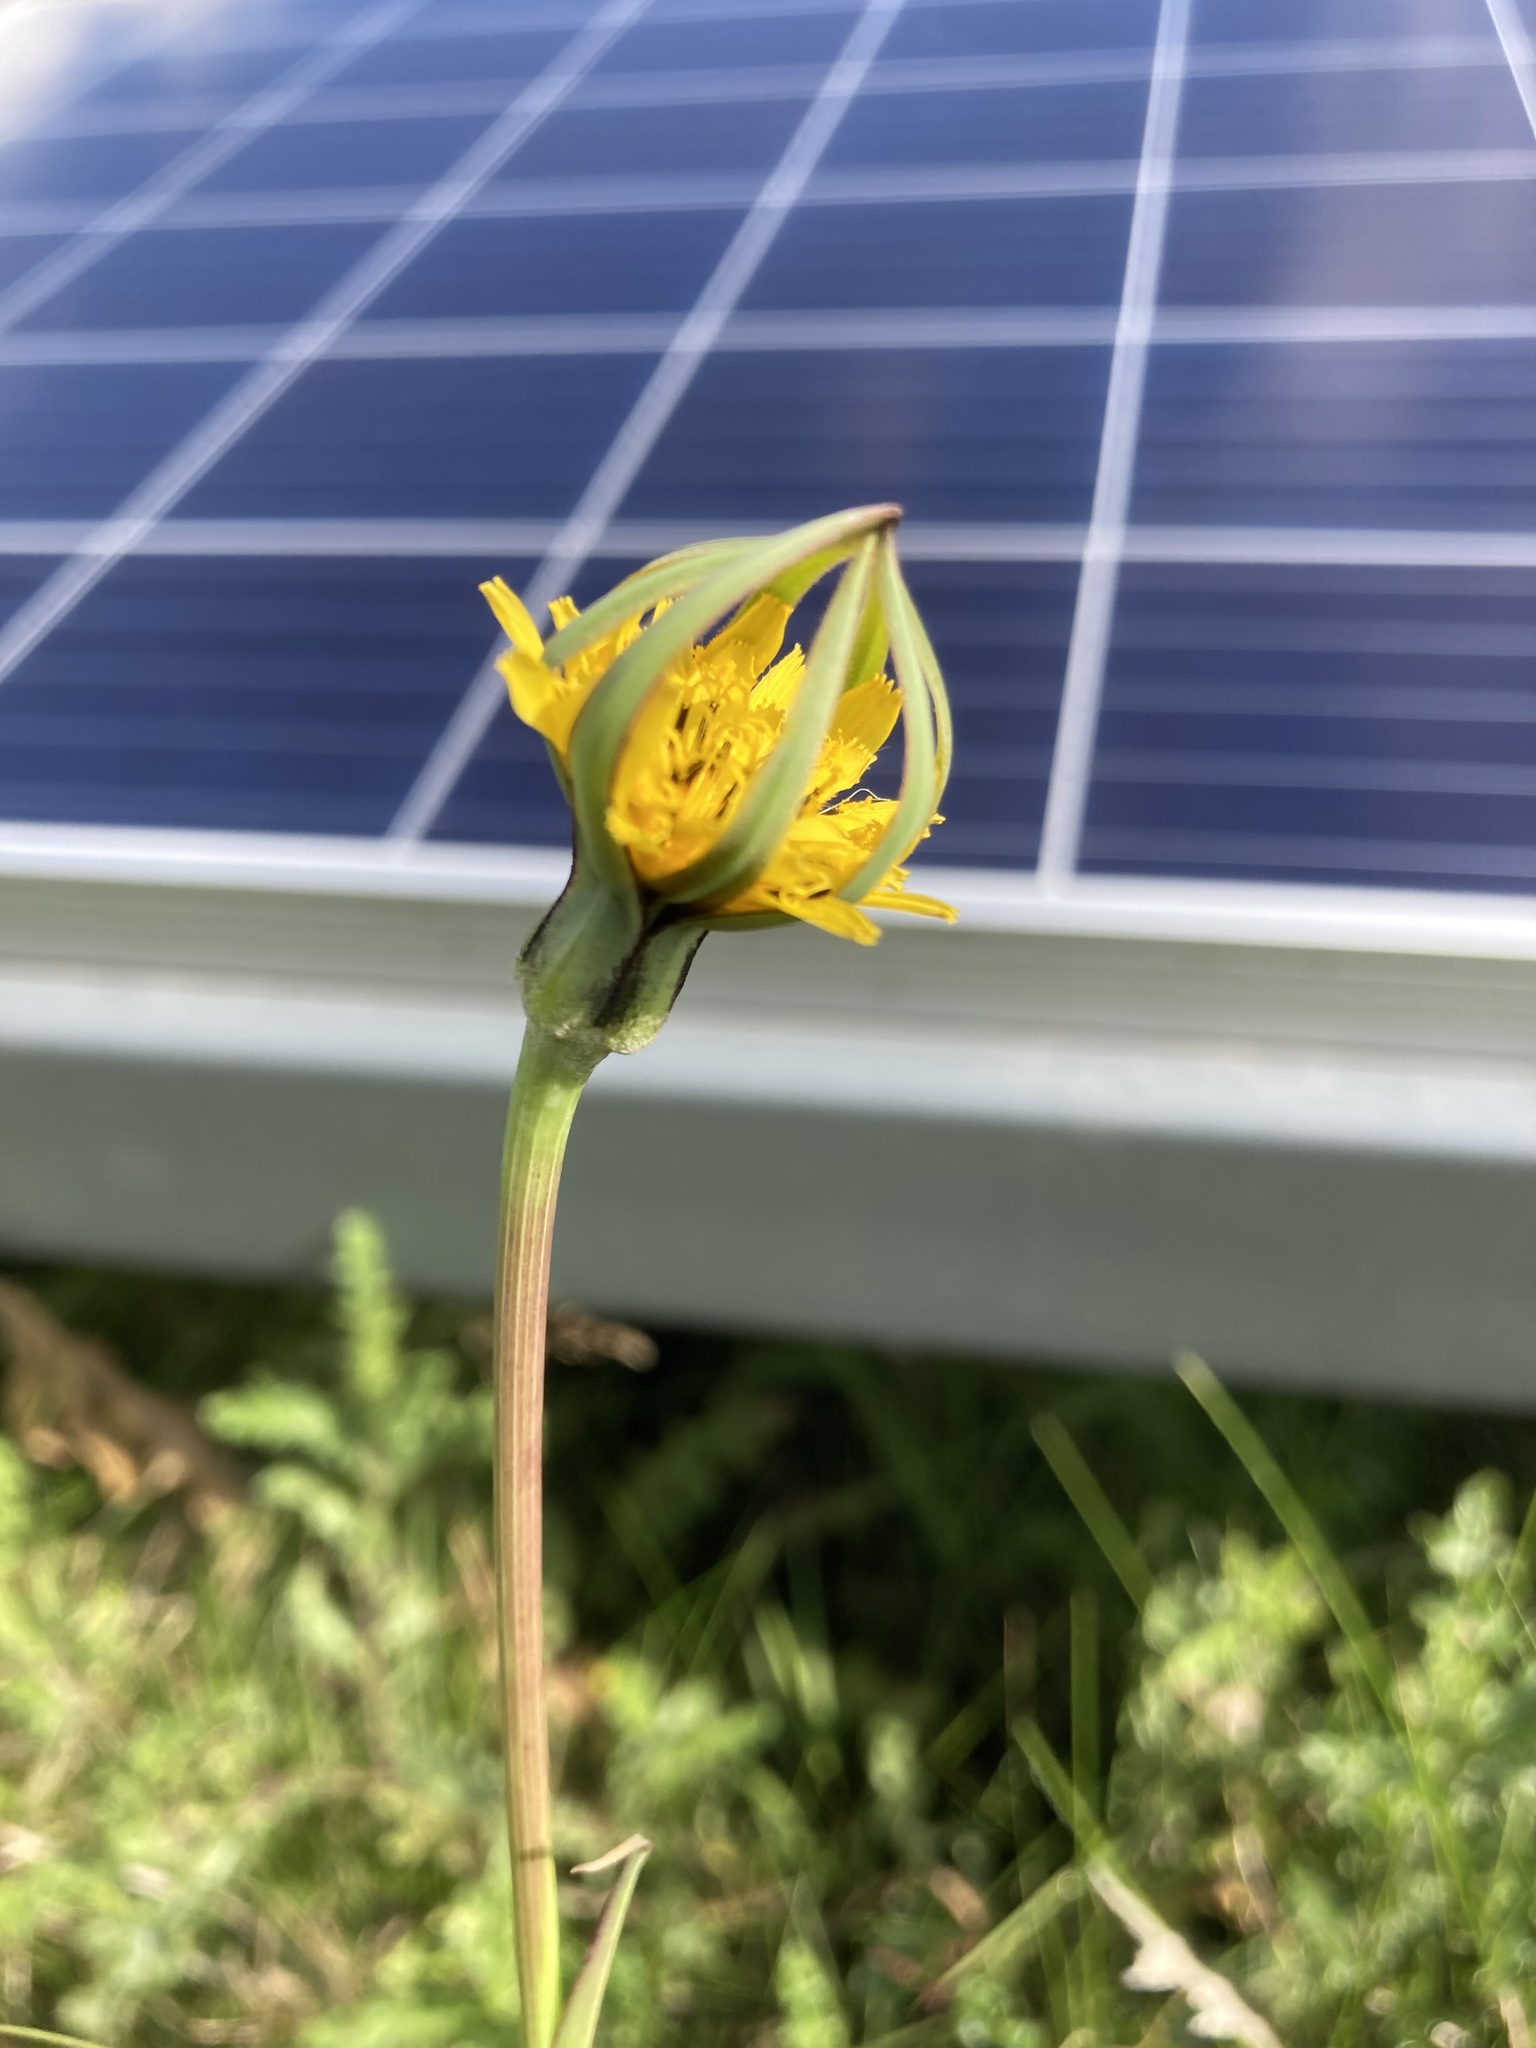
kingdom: Plantae
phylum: Tracheophyta
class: Magnoliopsida
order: Asterales
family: Asteraceae
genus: Tragopogon
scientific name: Tragopogon pratensis
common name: Goat's-beard
